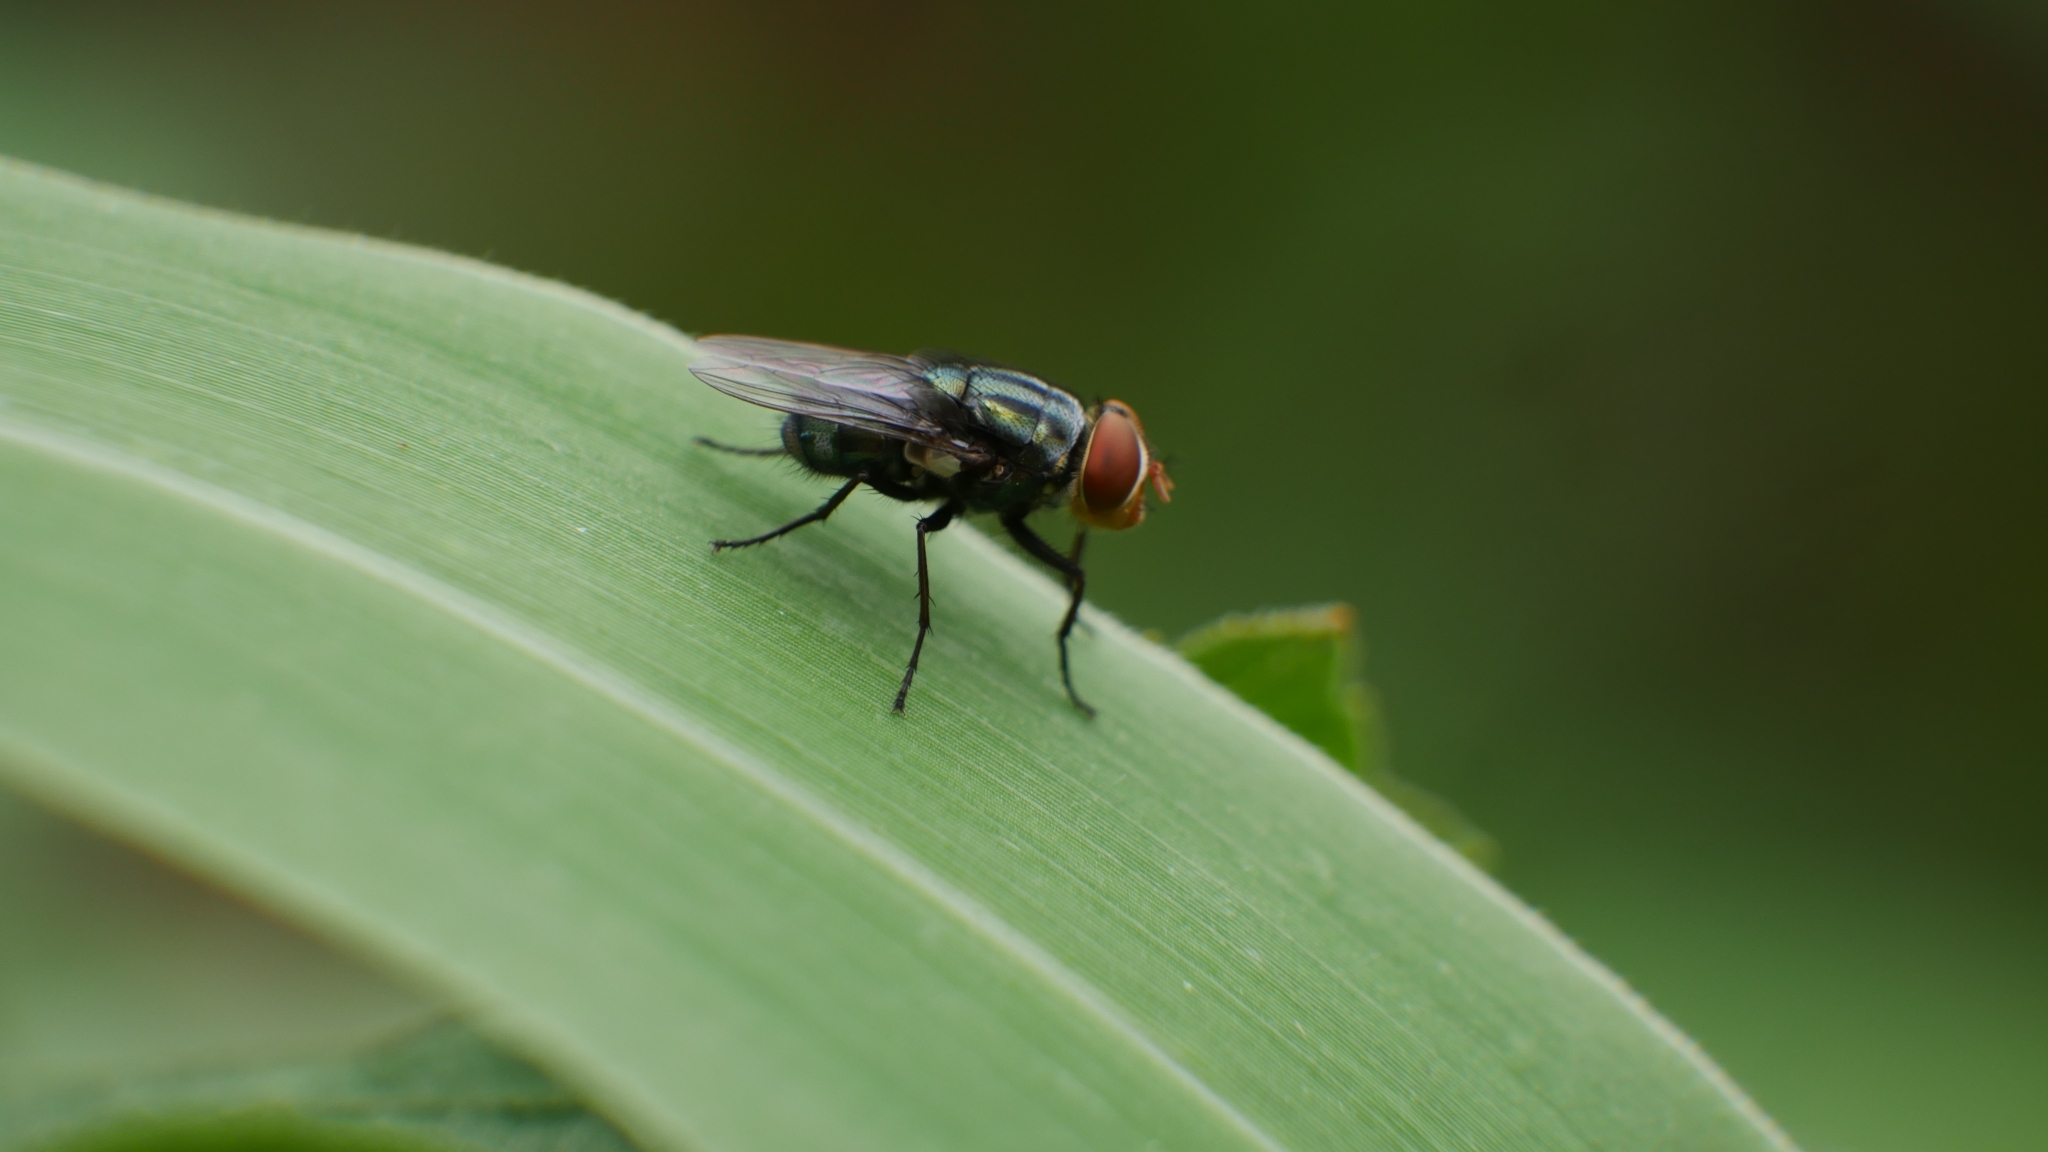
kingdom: Animalia
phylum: Arthropoda
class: Insecta
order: Diptera
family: Calliphoridae
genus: Cochliomyia
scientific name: Cochliomyia macellaria
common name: Secondary screwworm
